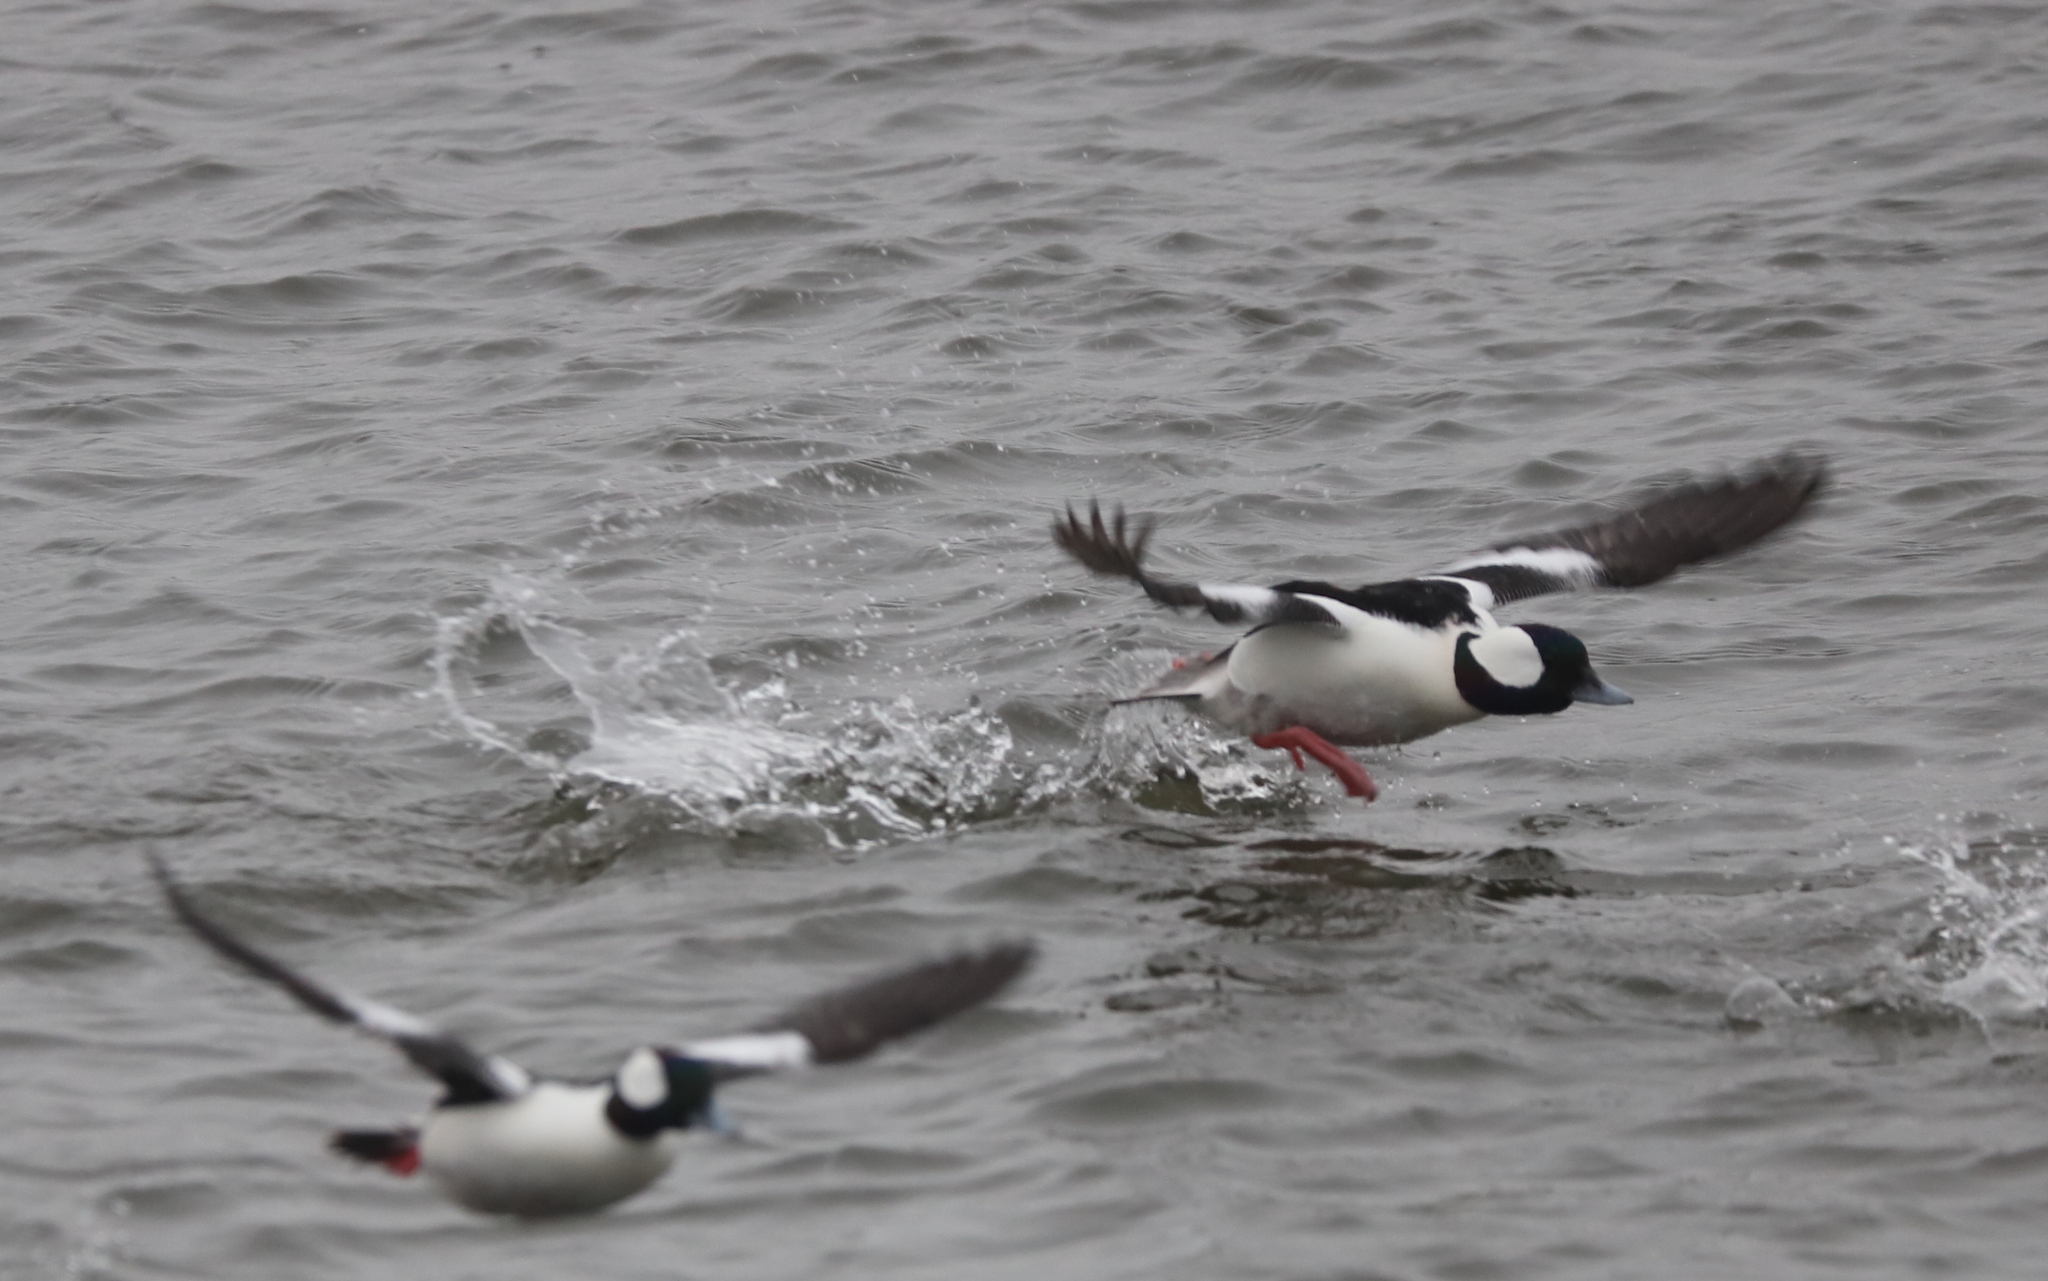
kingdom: Animalia
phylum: Chordata
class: Aves
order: Anseriformes
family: Anatidae
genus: Bucephala
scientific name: Bucephala albeola
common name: Bufflehead
